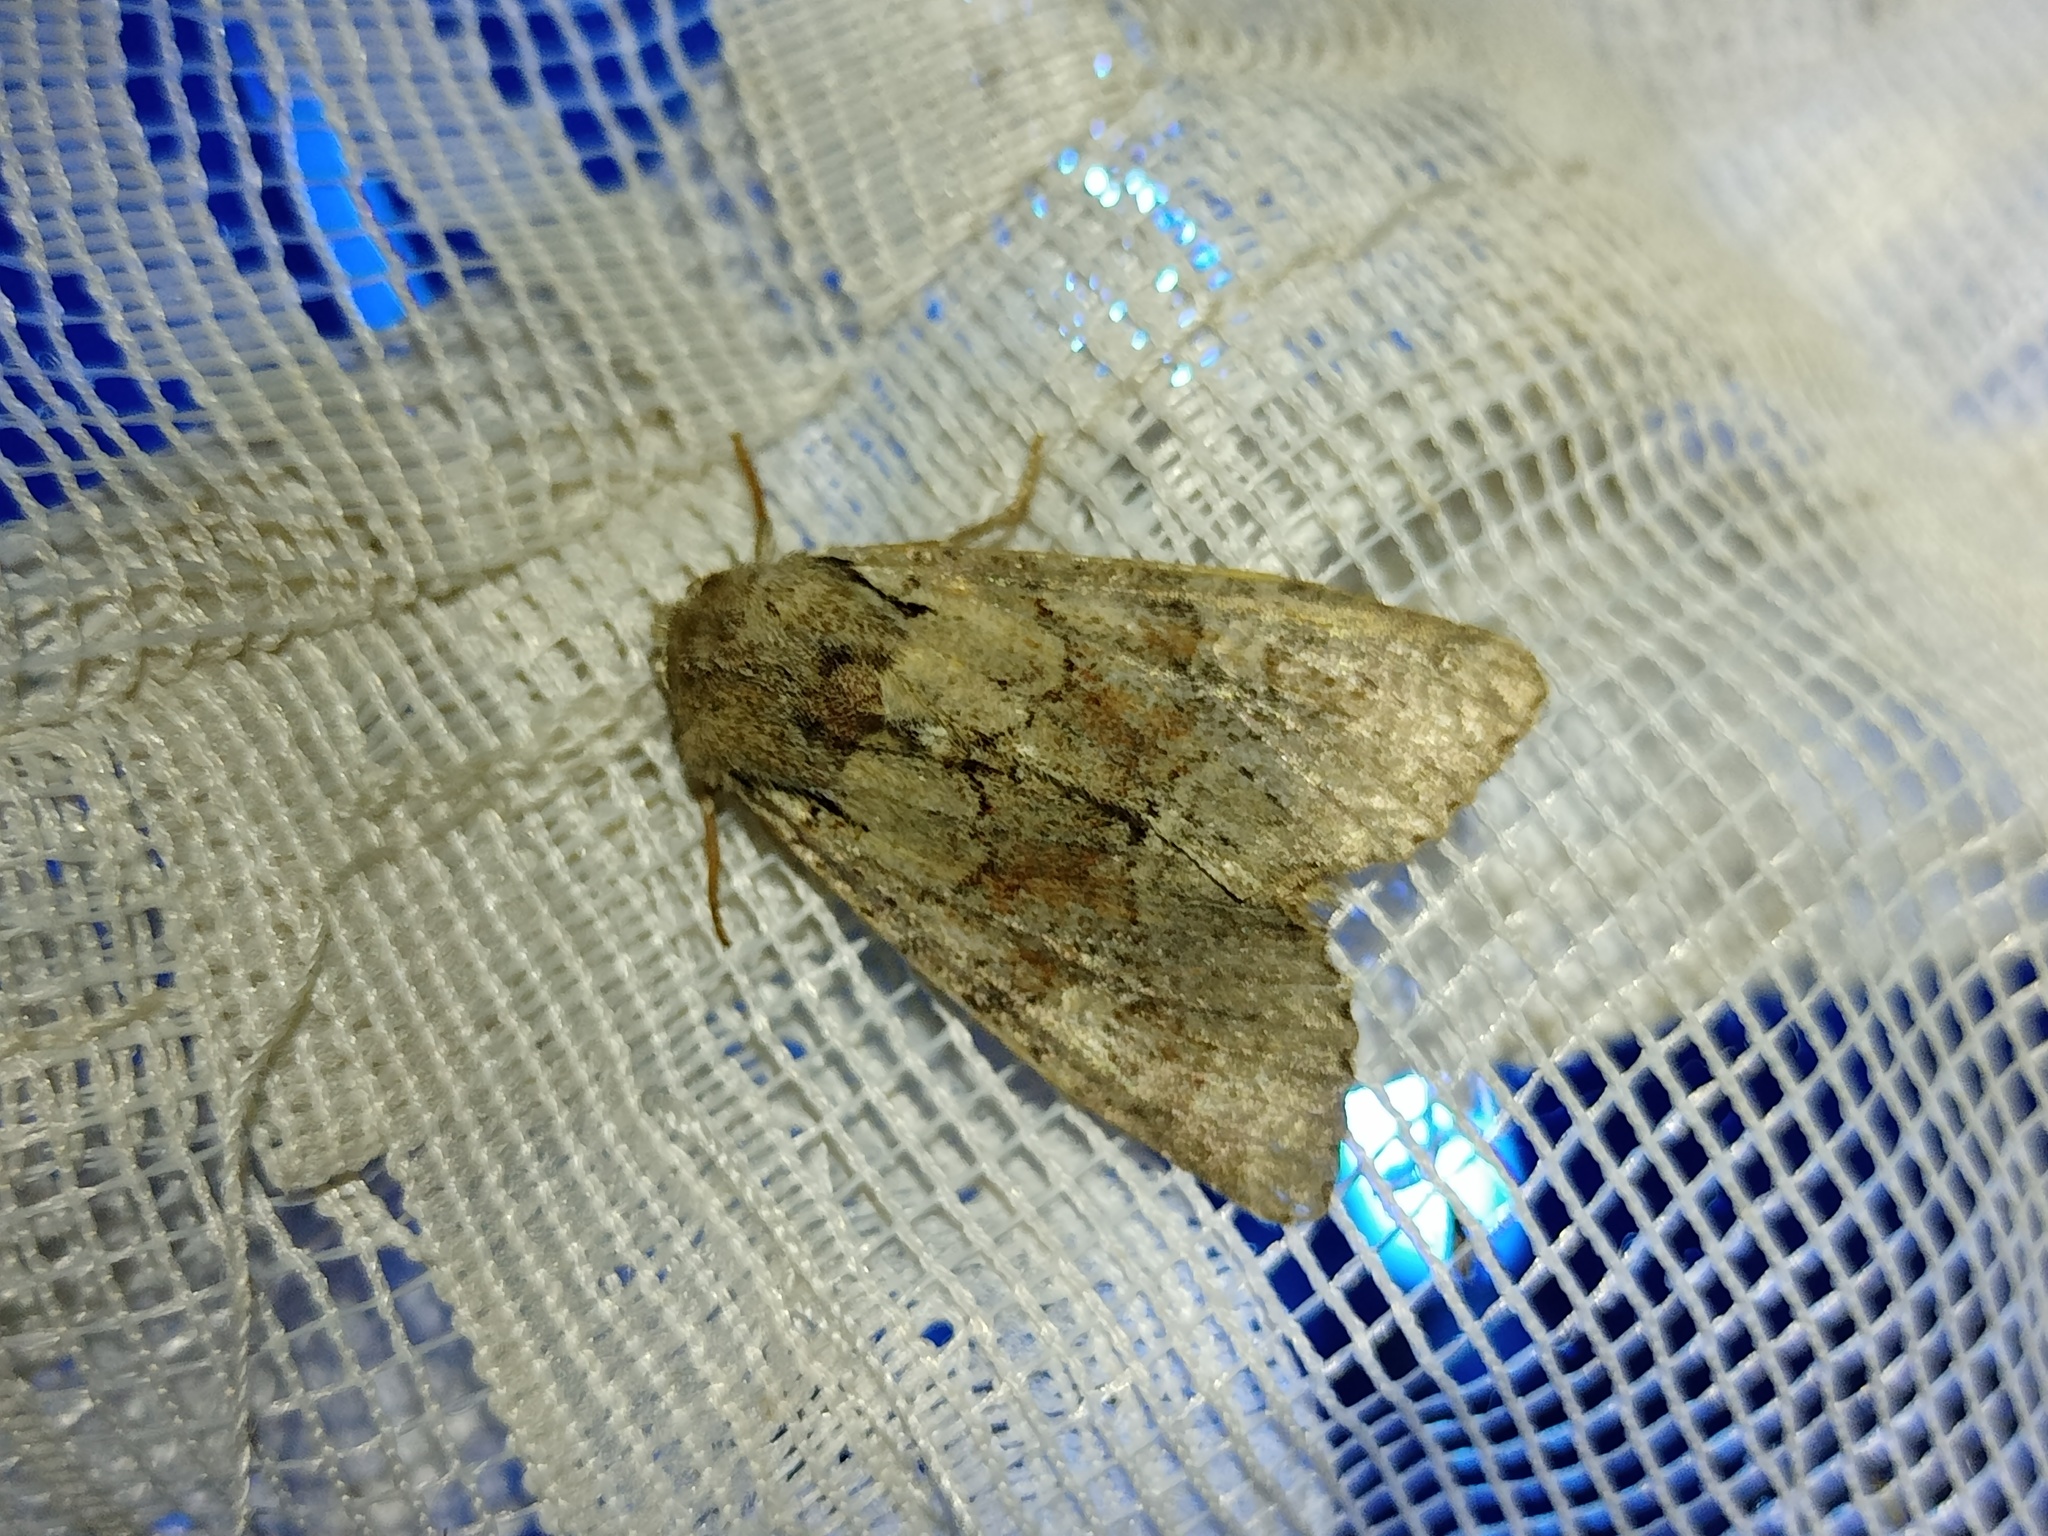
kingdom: Animalia
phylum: Arthropoda
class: Insecta
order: Lepidoptera
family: Noctuidae
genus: Apamea
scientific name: Apamea sordens
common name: Rustic shoulder-knot
